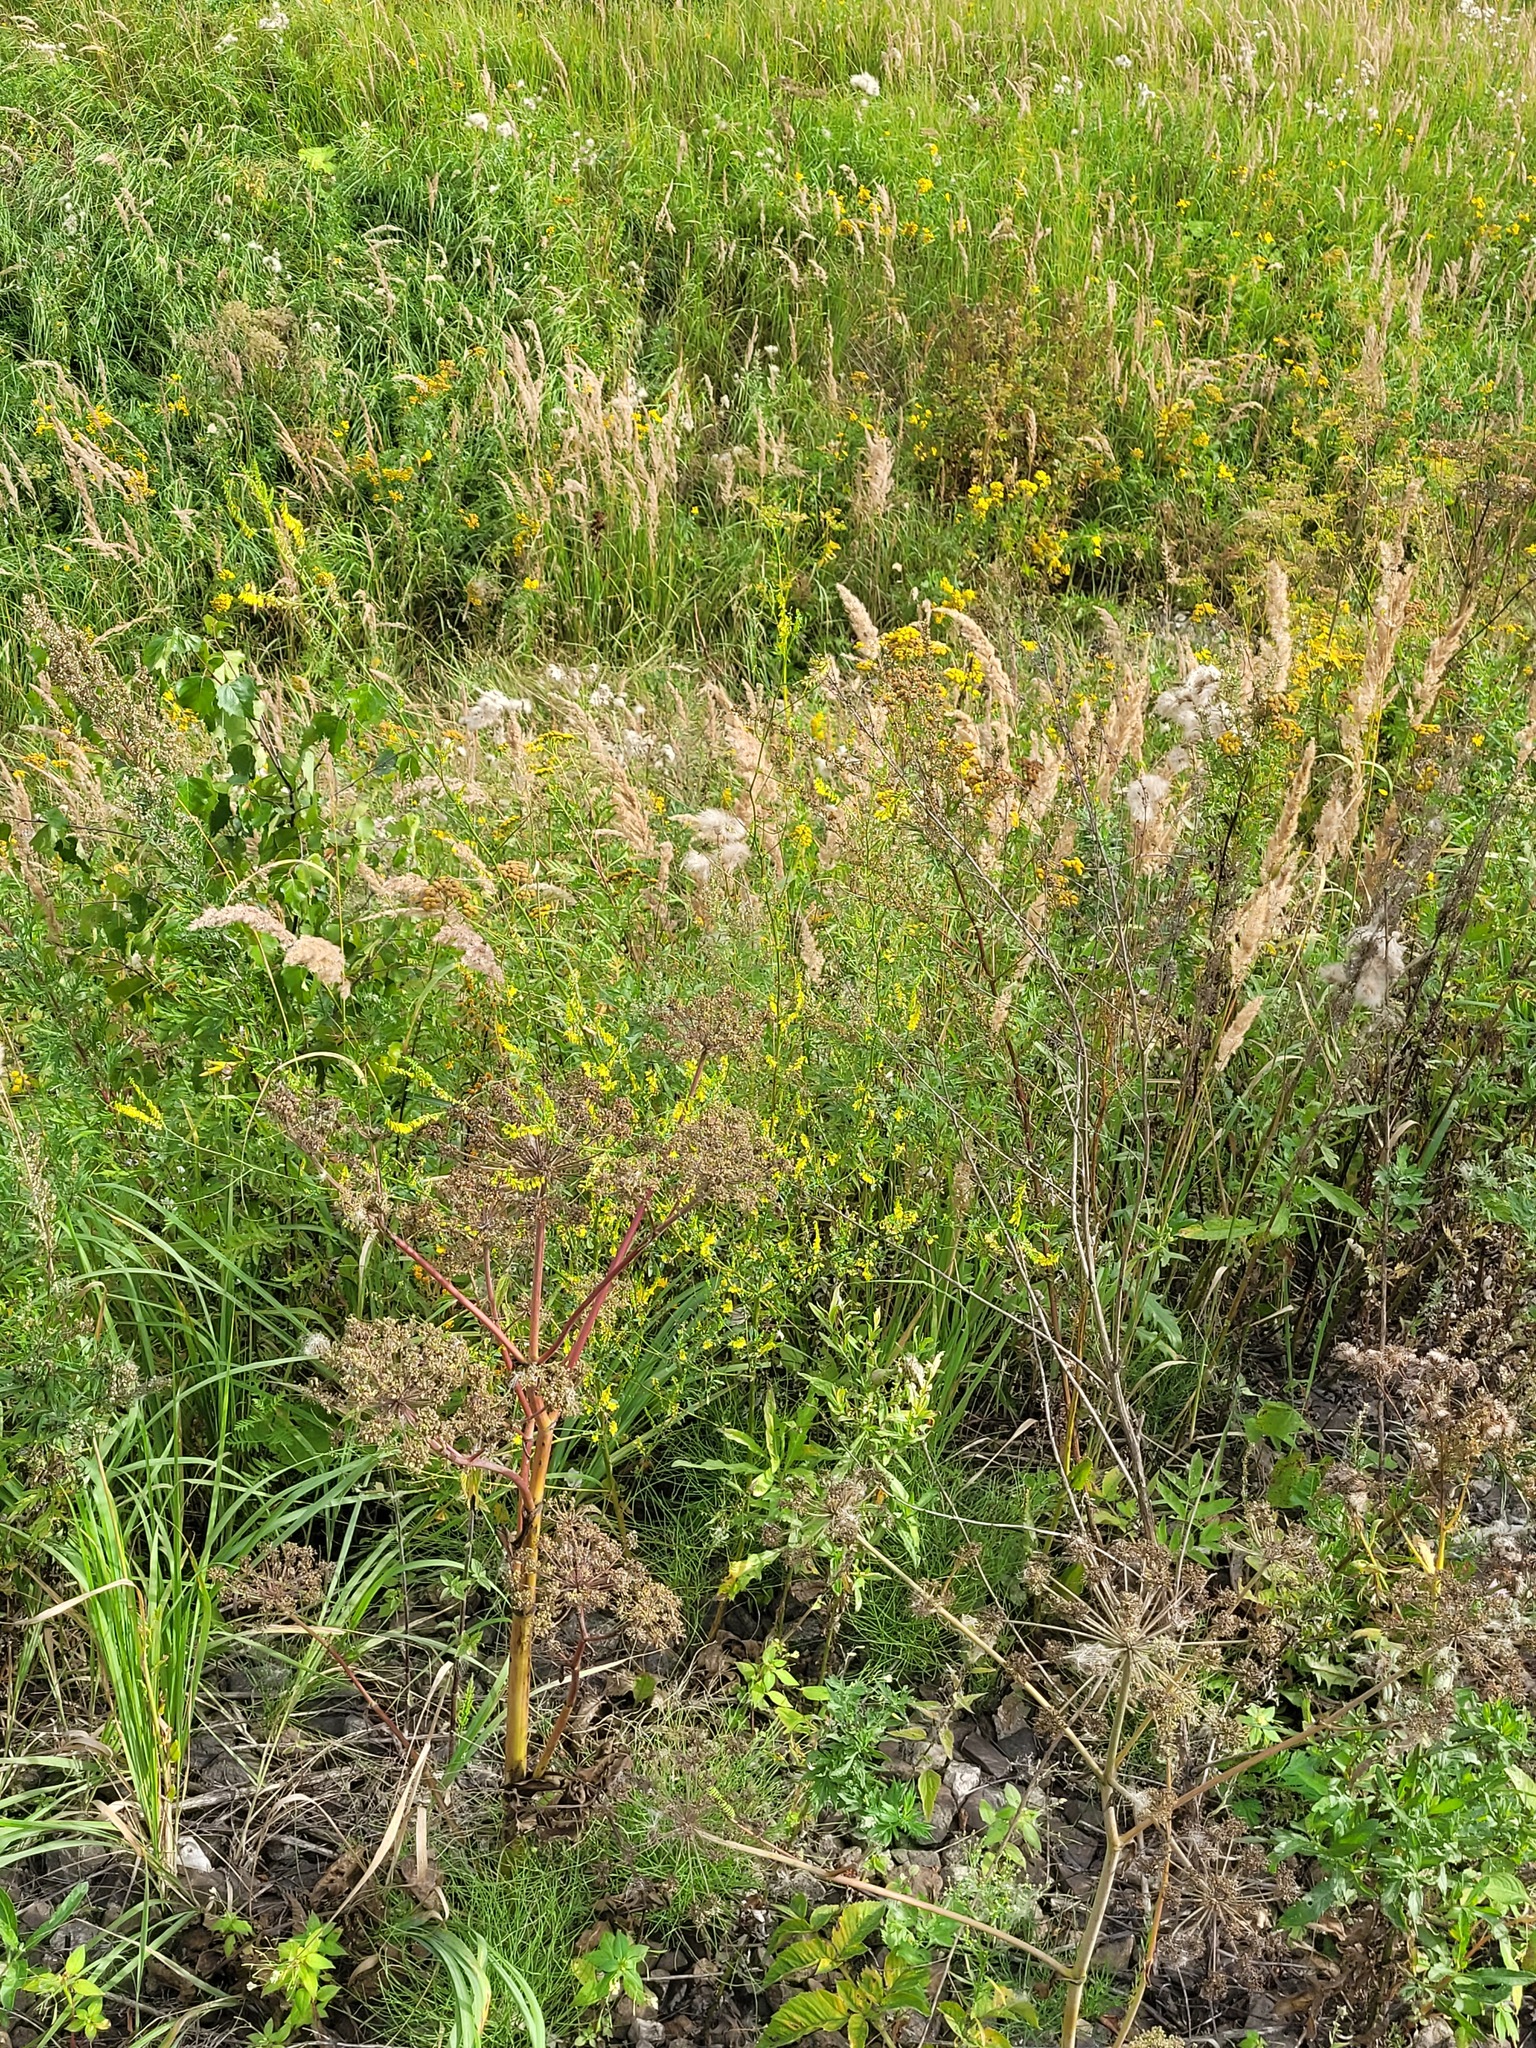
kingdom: Plantae
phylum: Tracheophyta
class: Magnoliopsida
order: Apiales
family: Apiaceae
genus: Angelica
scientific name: Angelica sylvestris
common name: Wild angelica
